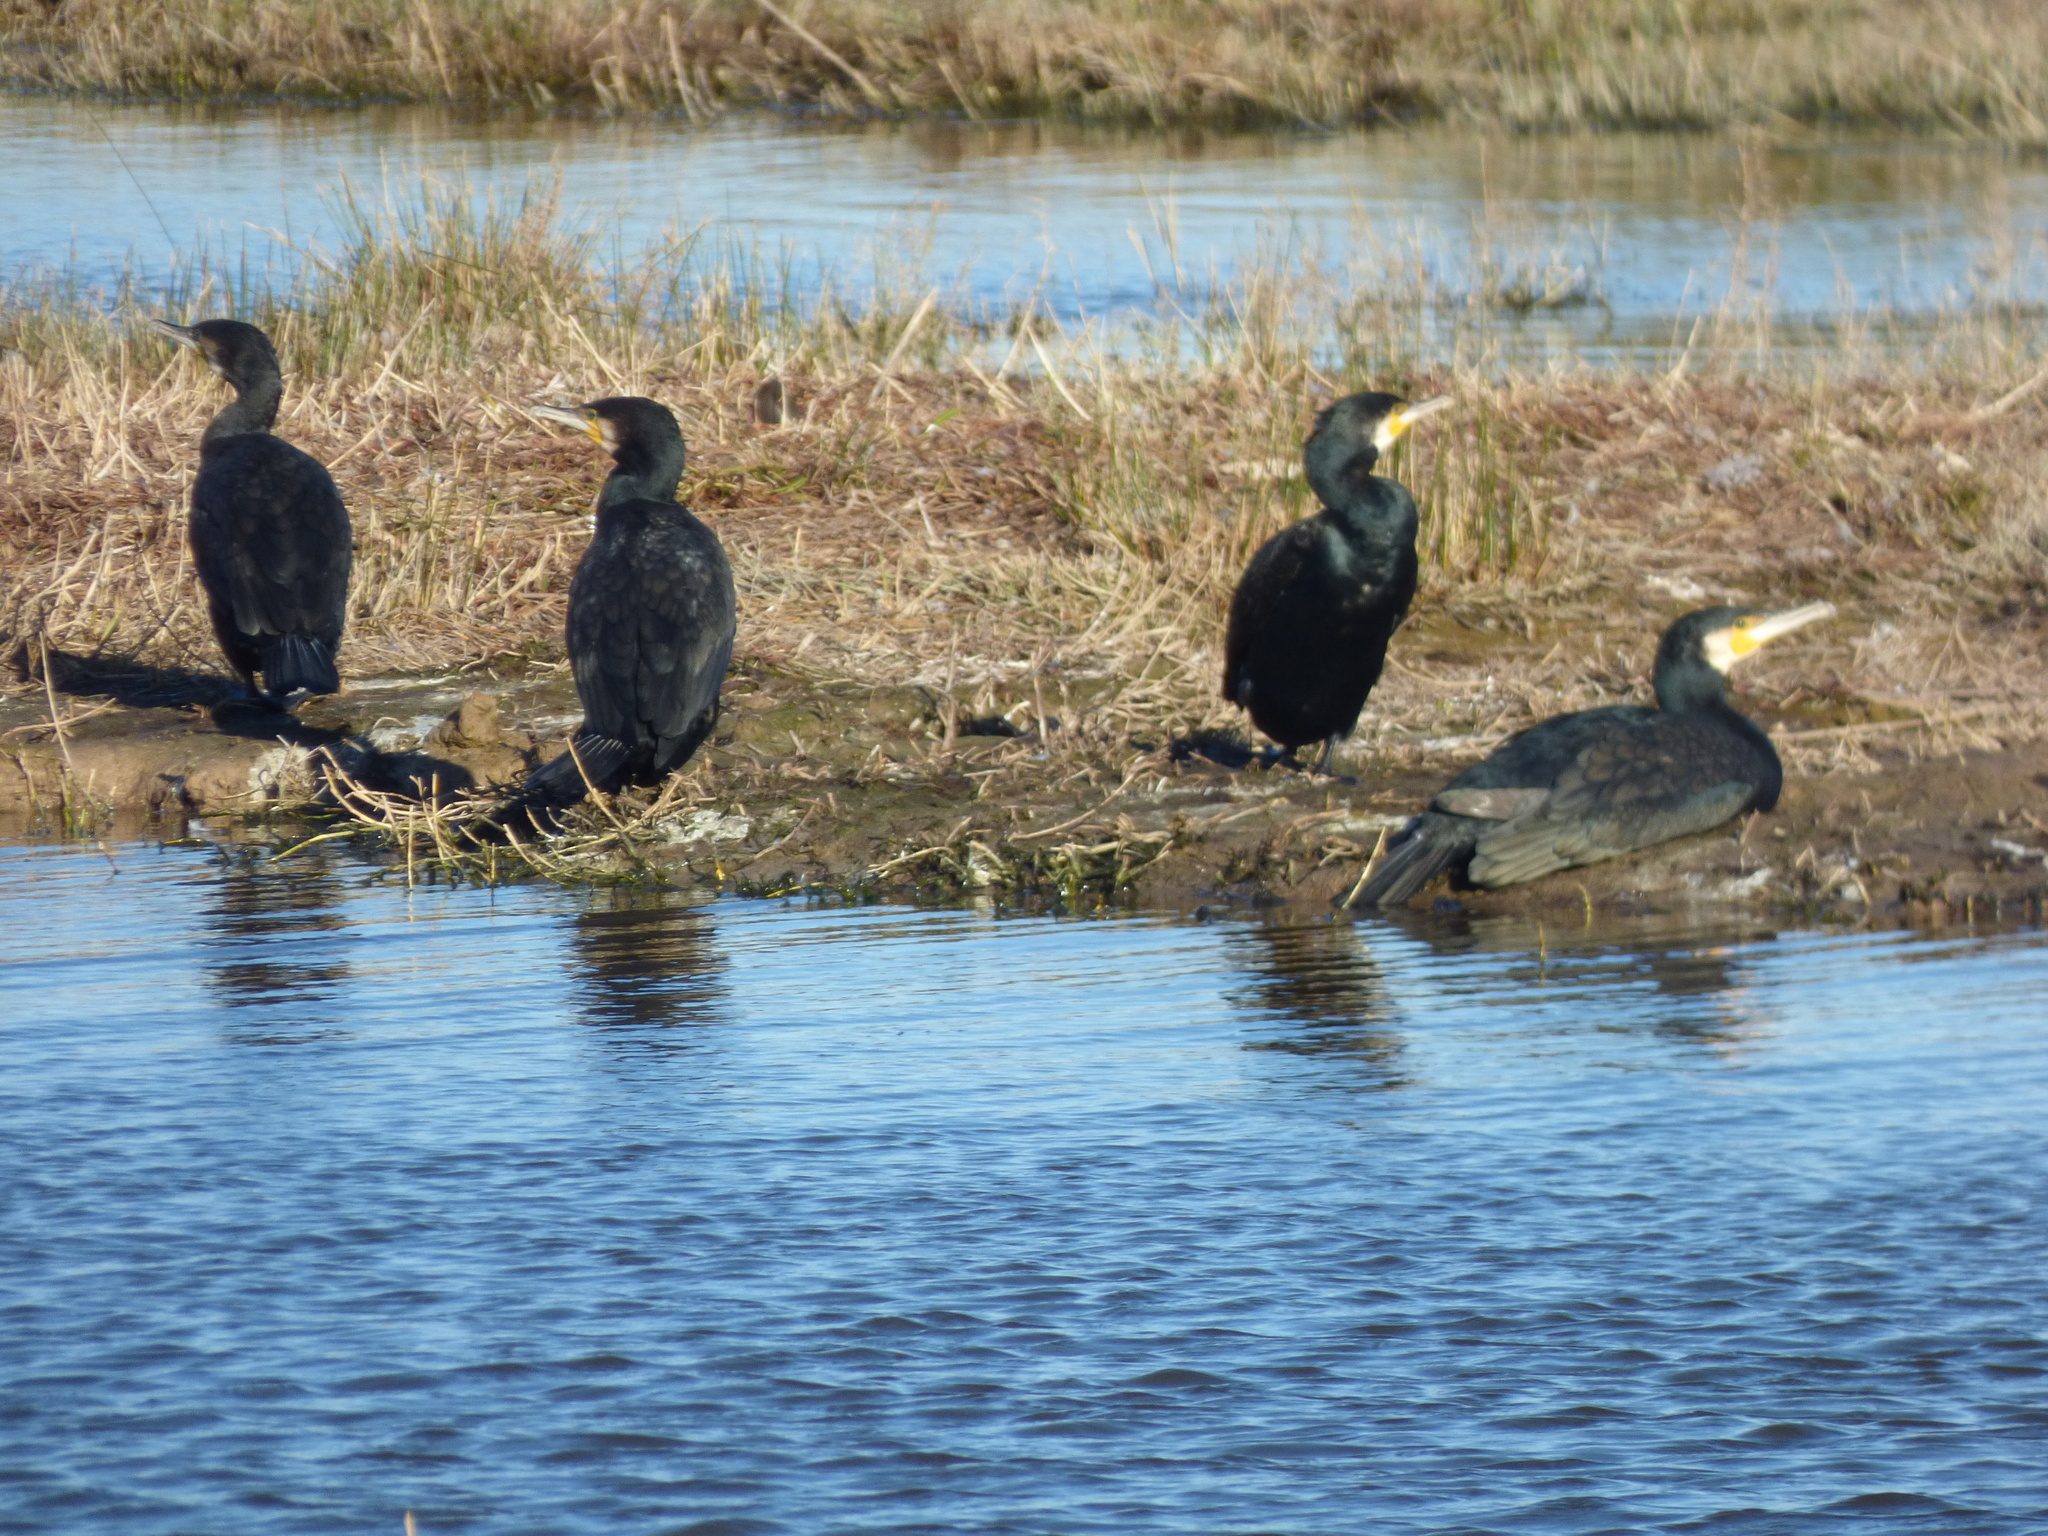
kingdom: Animalia
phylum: Chordata
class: Aves
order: Suliformes
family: Phalacrocoracidae
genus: Phalacrocorax
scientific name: Phalacrocorax carbo
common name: Great cormorant
